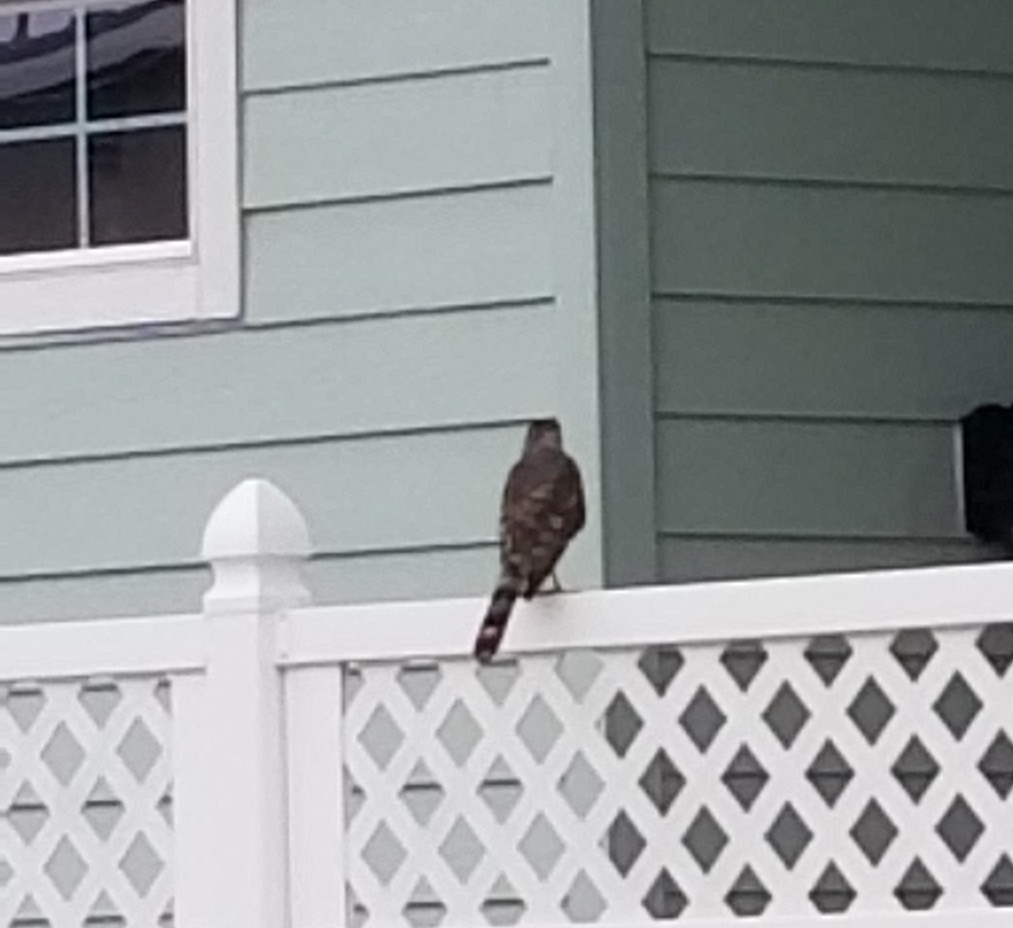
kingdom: Animalia
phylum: Chordata
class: Aves
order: Accipitriformes
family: Accipitridae
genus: Accipiter
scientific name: Accipiter cooperii
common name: Cooper's hawk
